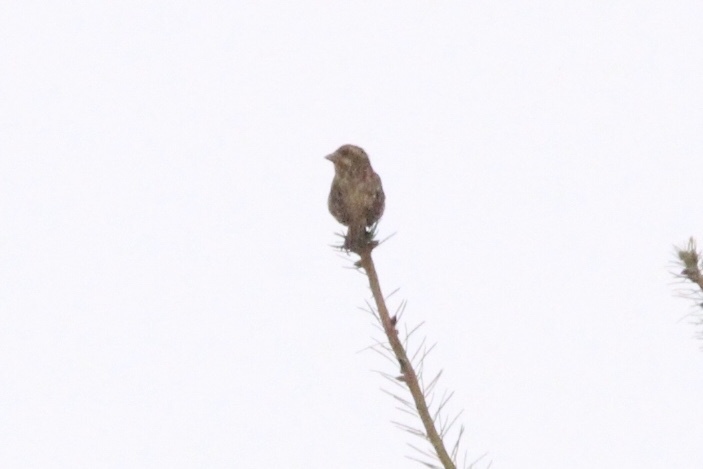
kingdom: Animalia
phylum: Chordata
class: Aves
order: Passeriformes
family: Fringillidae
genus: Haemorhous
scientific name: Haemorhous purpureus
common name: Purple finch
